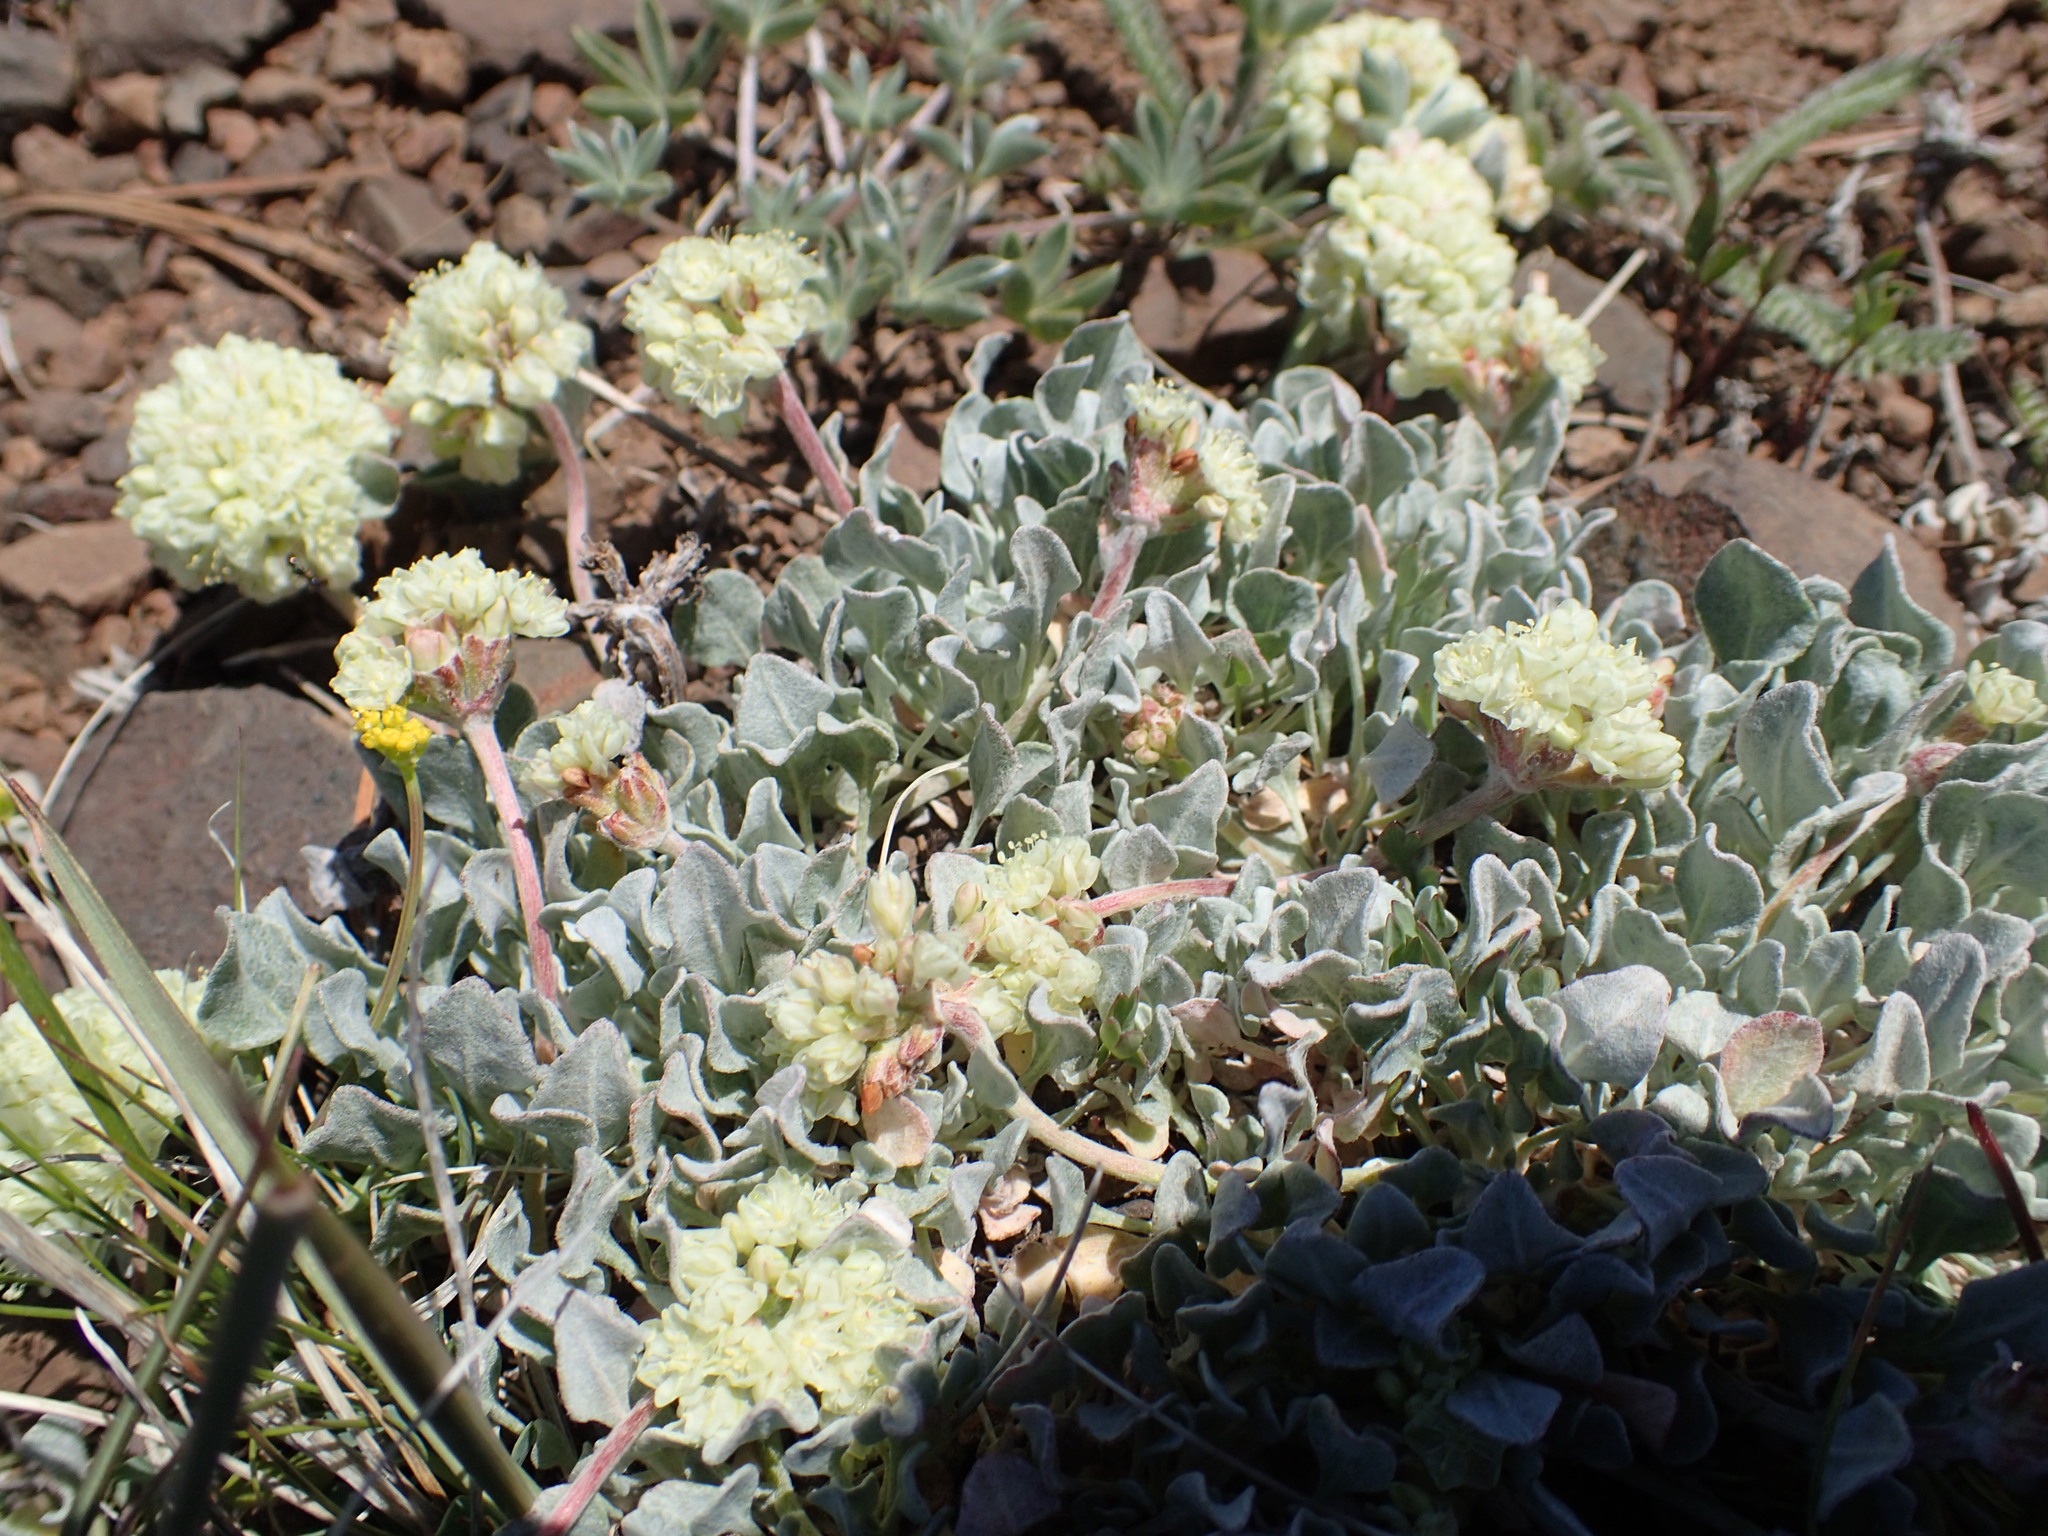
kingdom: Plantae
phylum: Tracheophyta
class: Magnoliopsida
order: Caryophyllales
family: Polygonaceae
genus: Eriogonum
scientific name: Eriogonum ovalifolium
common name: Cushion buckwheat
